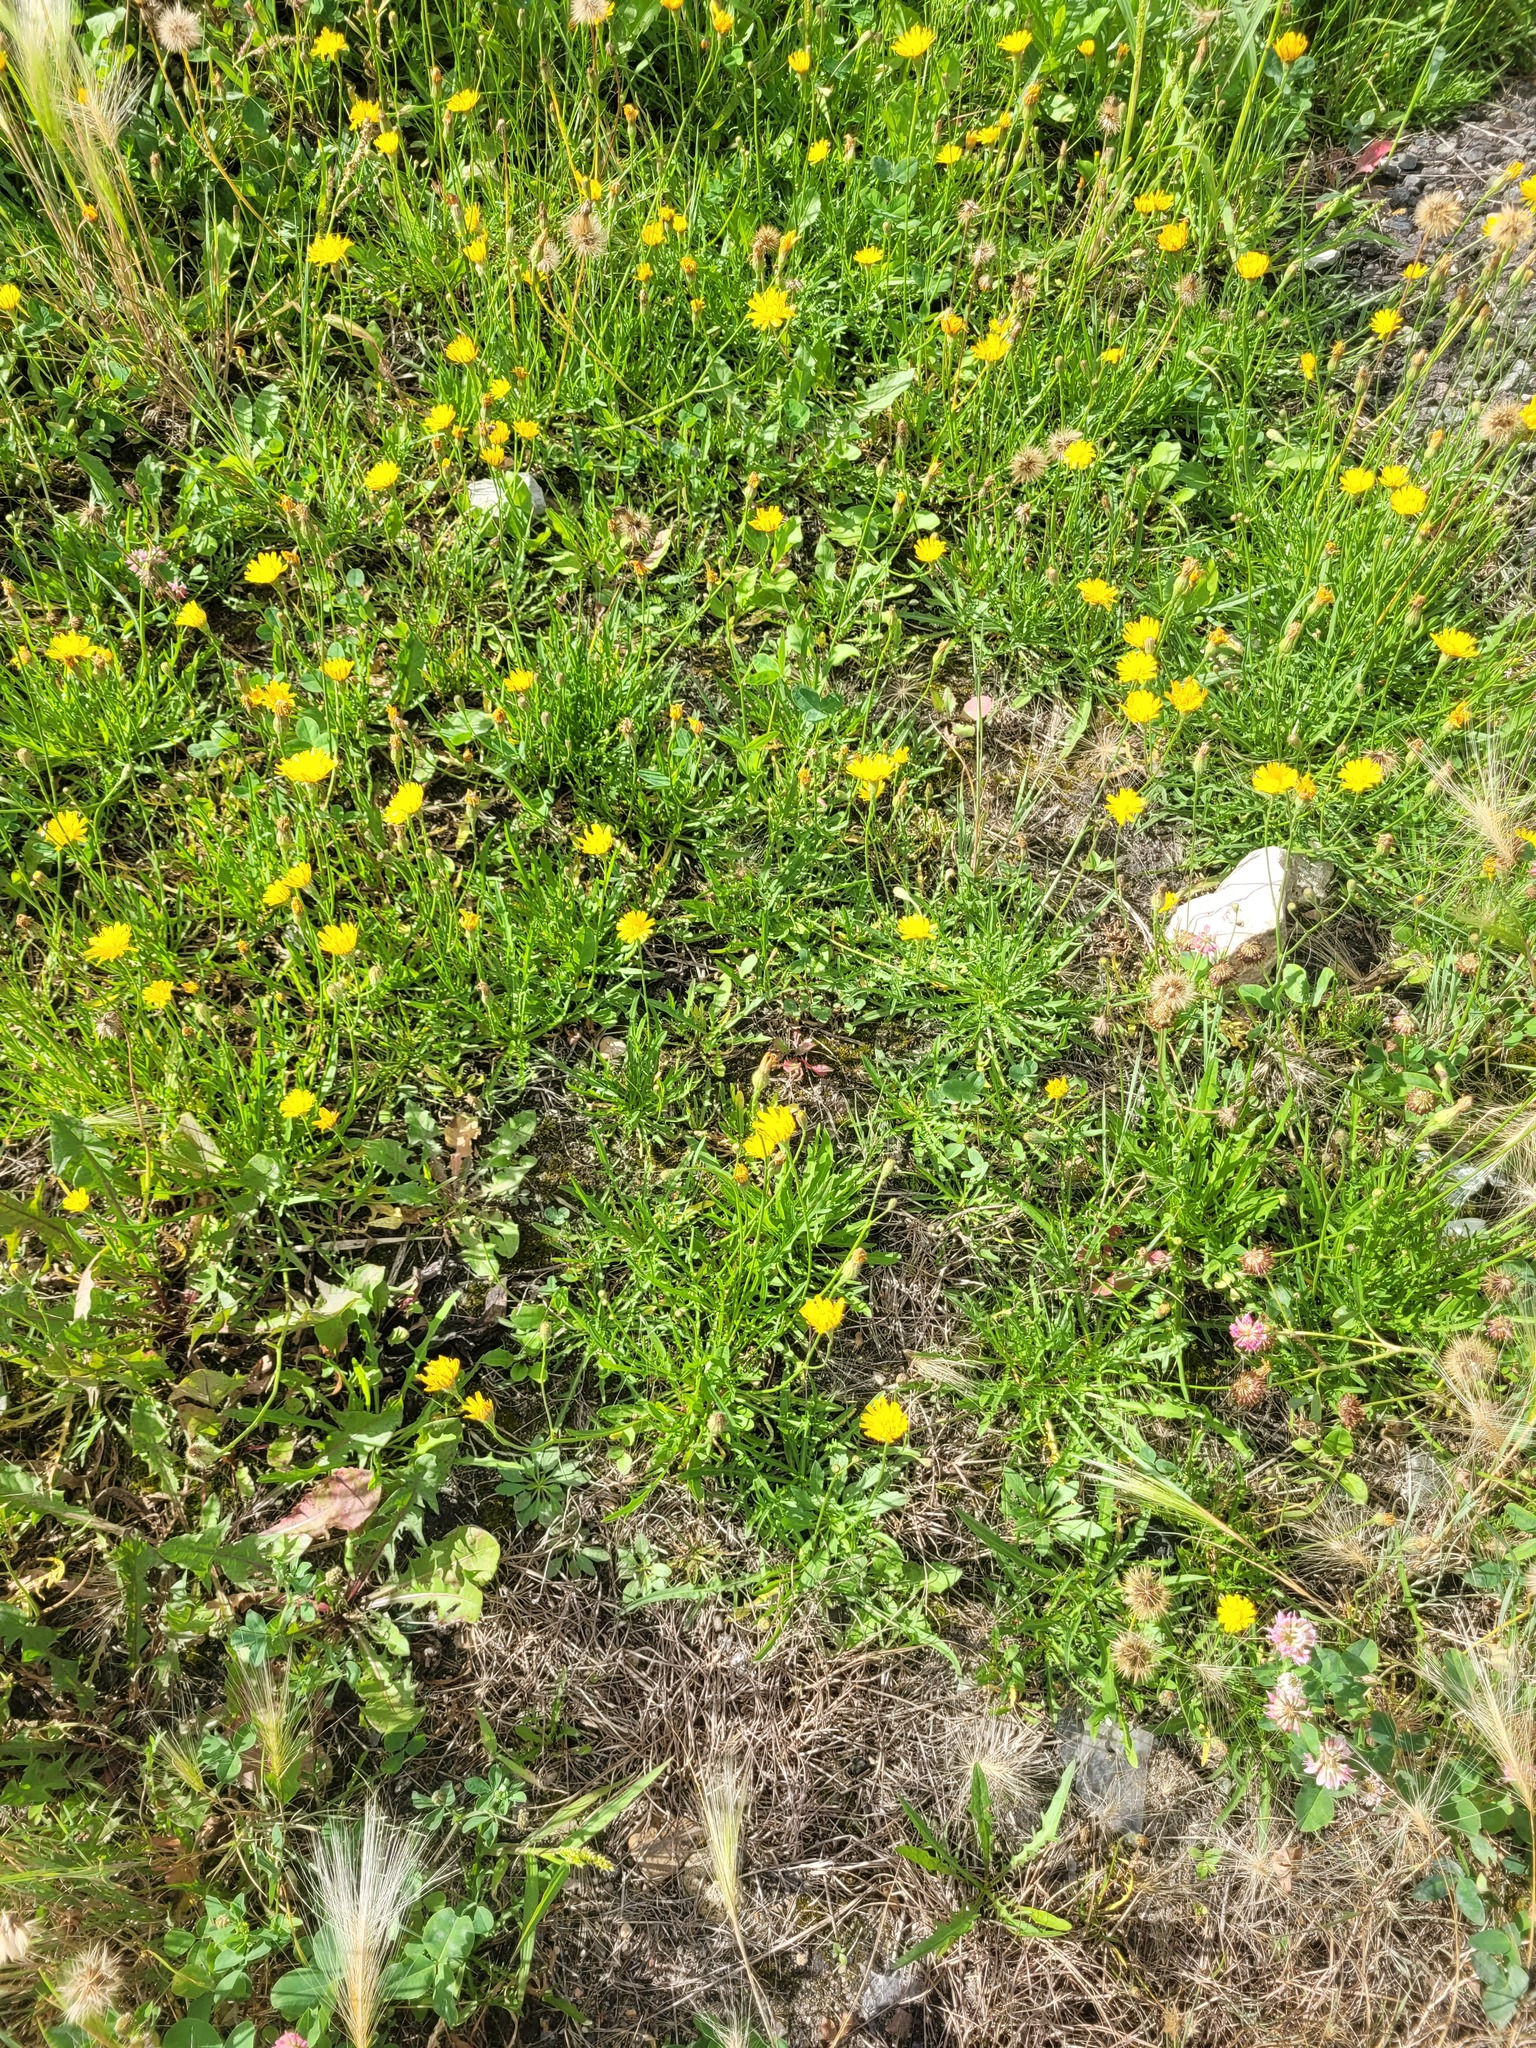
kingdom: Plantae
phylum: Tracheophyta
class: Magnoliopsida
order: Asterales
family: Asteraceae
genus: Scorzoneroides
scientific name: Scorzoneroides autumnalis
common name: Autumn hawkbit
